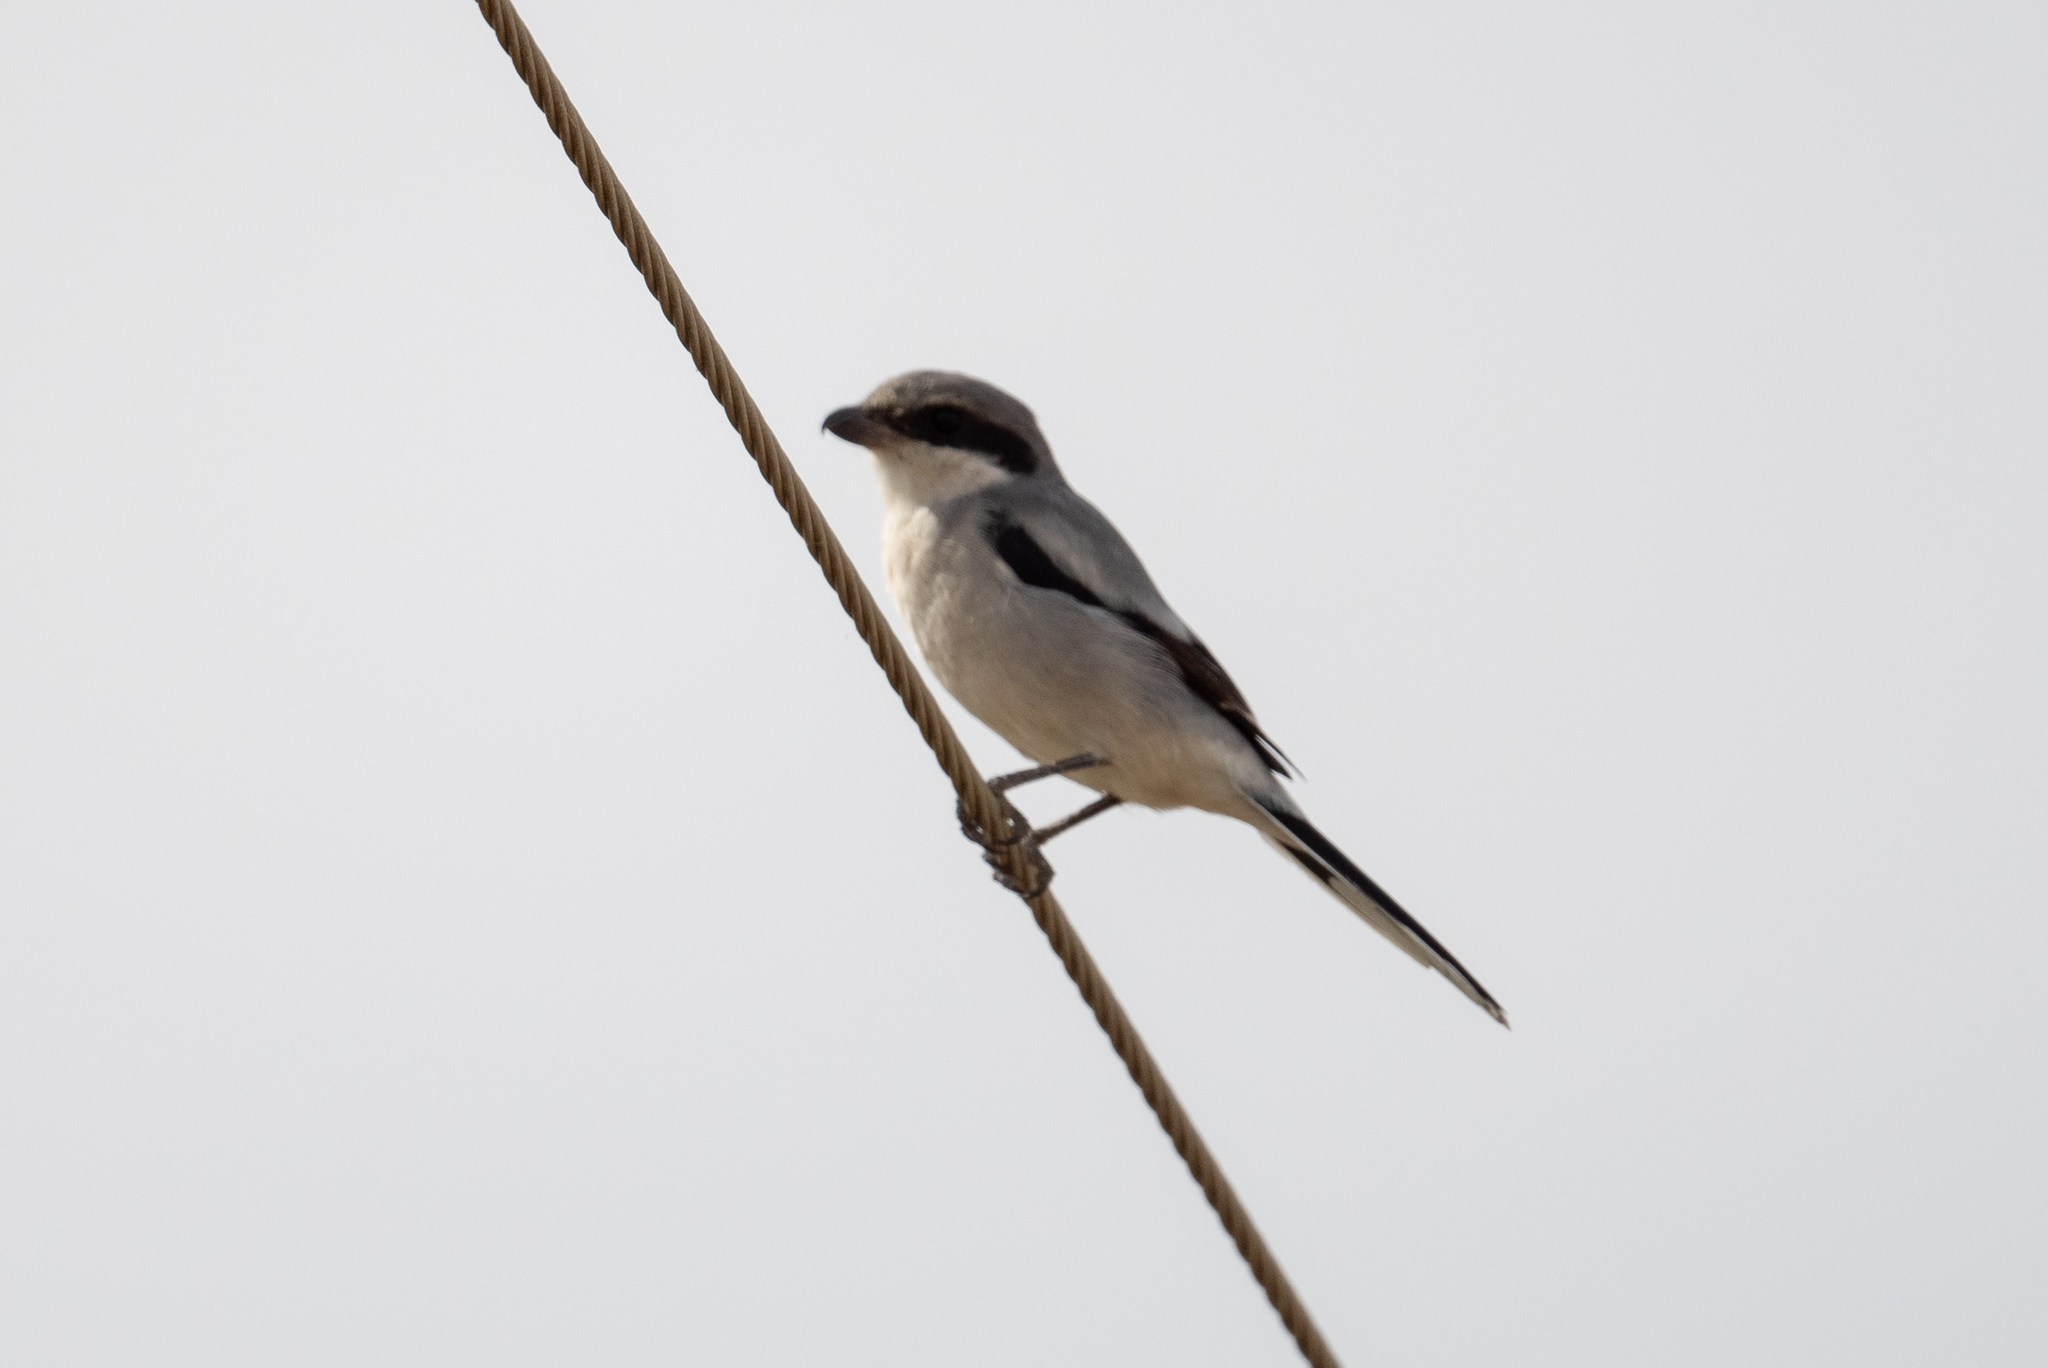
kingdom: Animalia
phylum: Chordata
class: Aves
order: Passeriformes
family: Laniidae
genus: Lanius
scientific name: Lanius ludovicianus
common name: Loggerhead shrike
